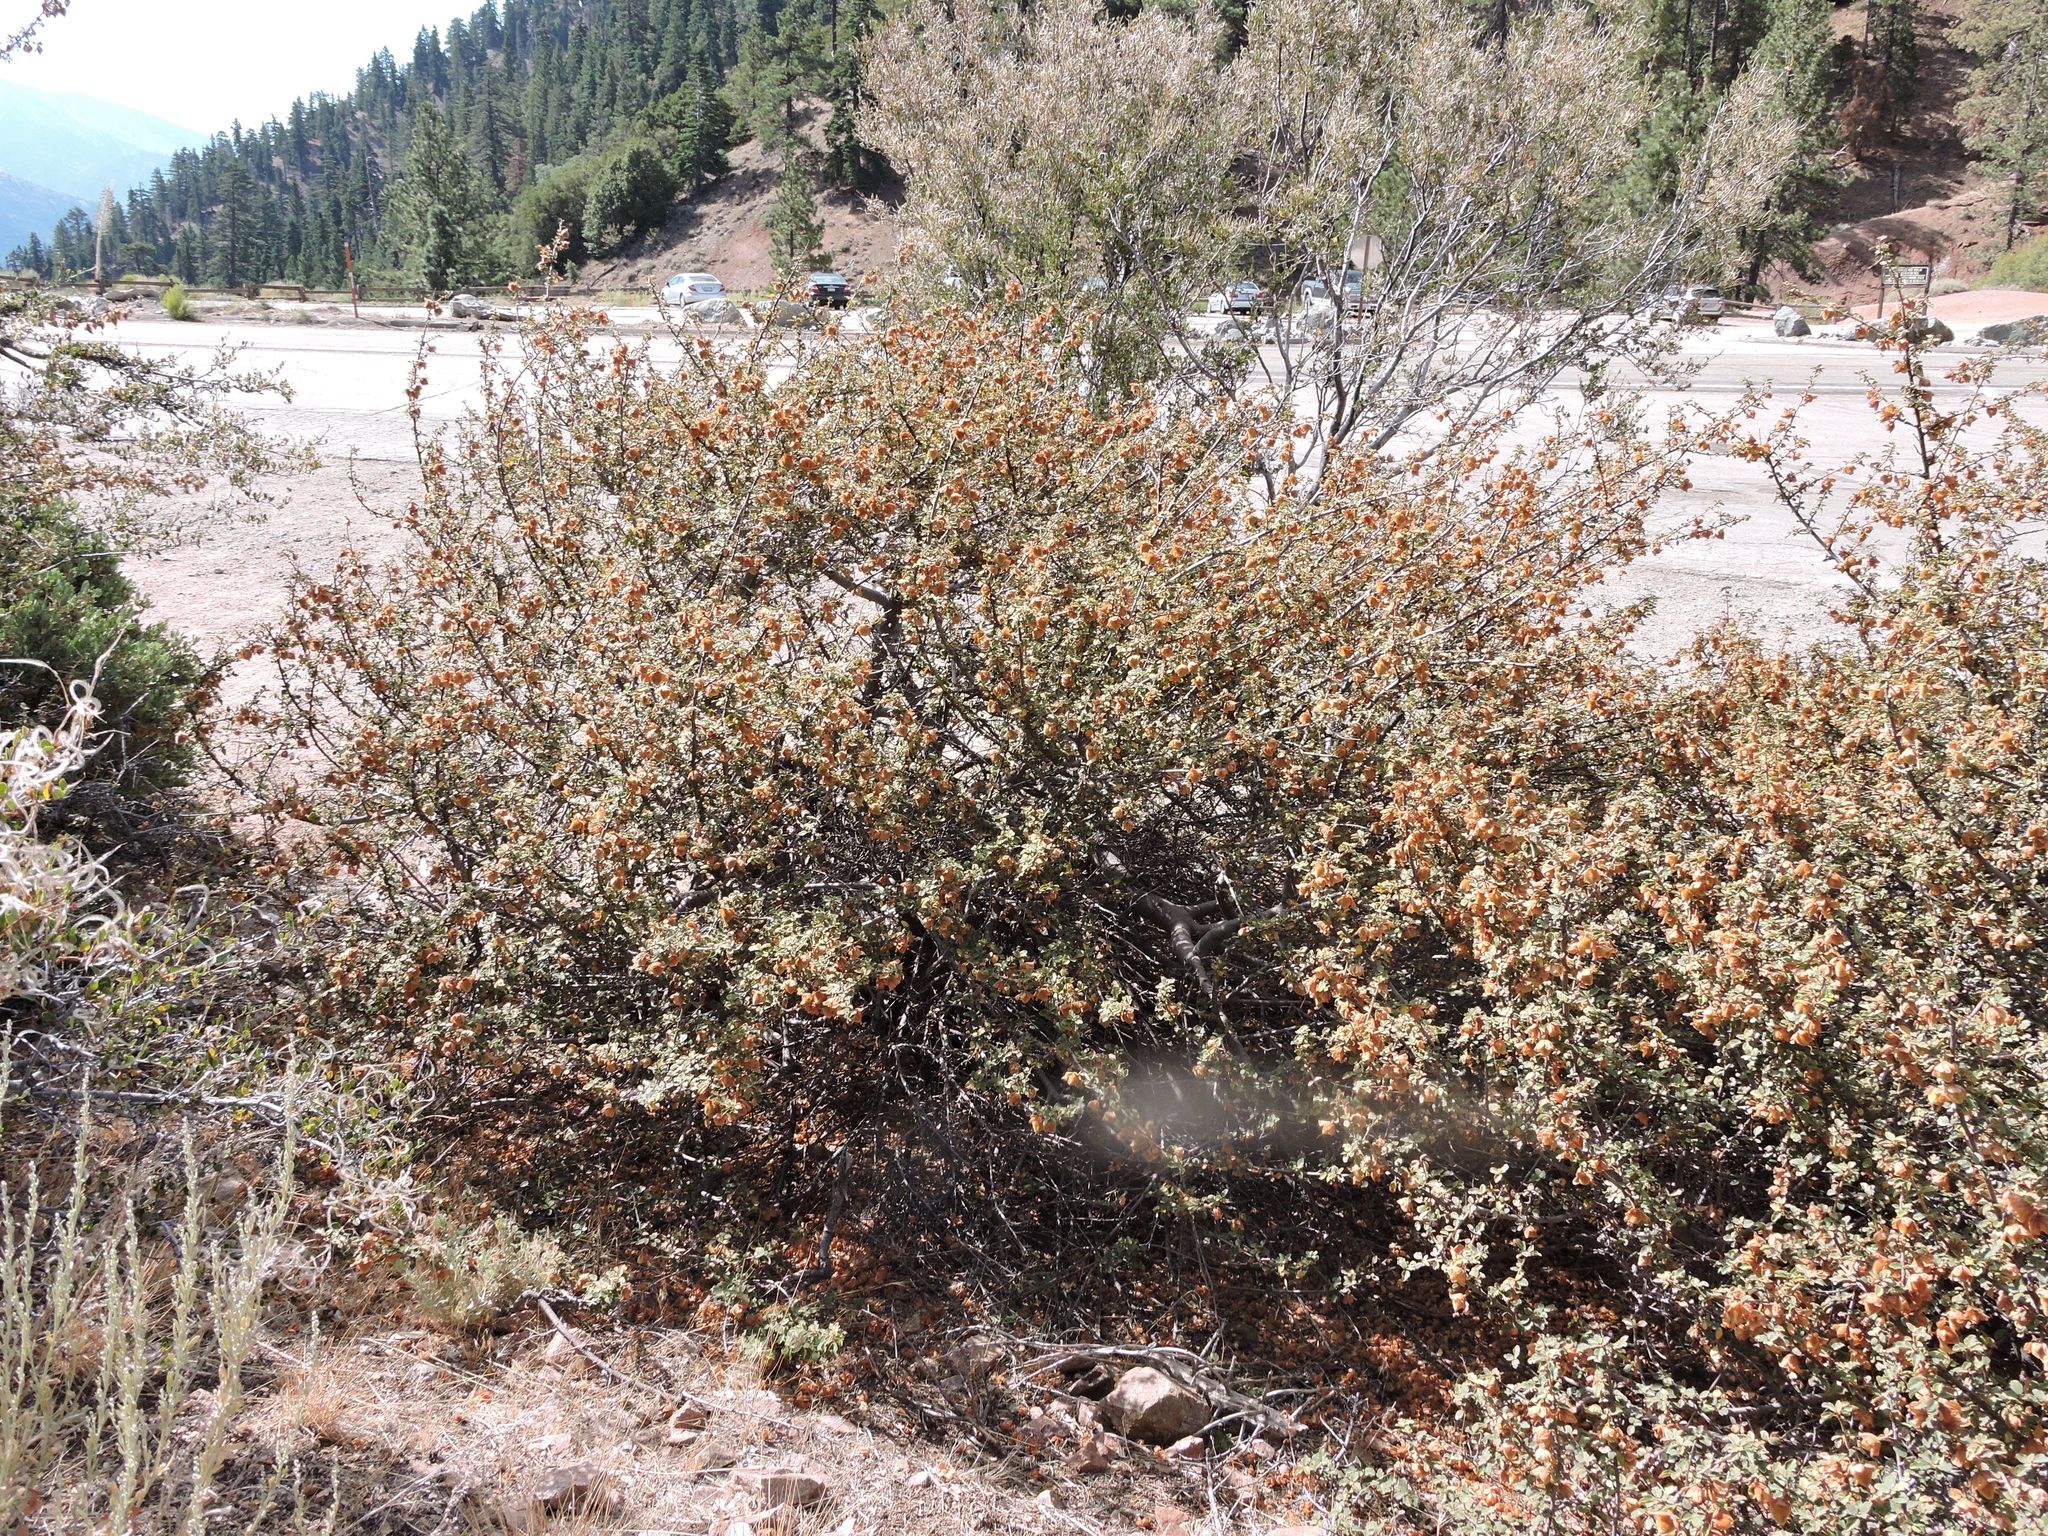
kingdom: Plantae
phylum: Tracheophyta
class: Magnoliopsida
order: Malvales
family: Malvaceae
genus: Fremontodendron
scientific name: Fremontodendron californicum
